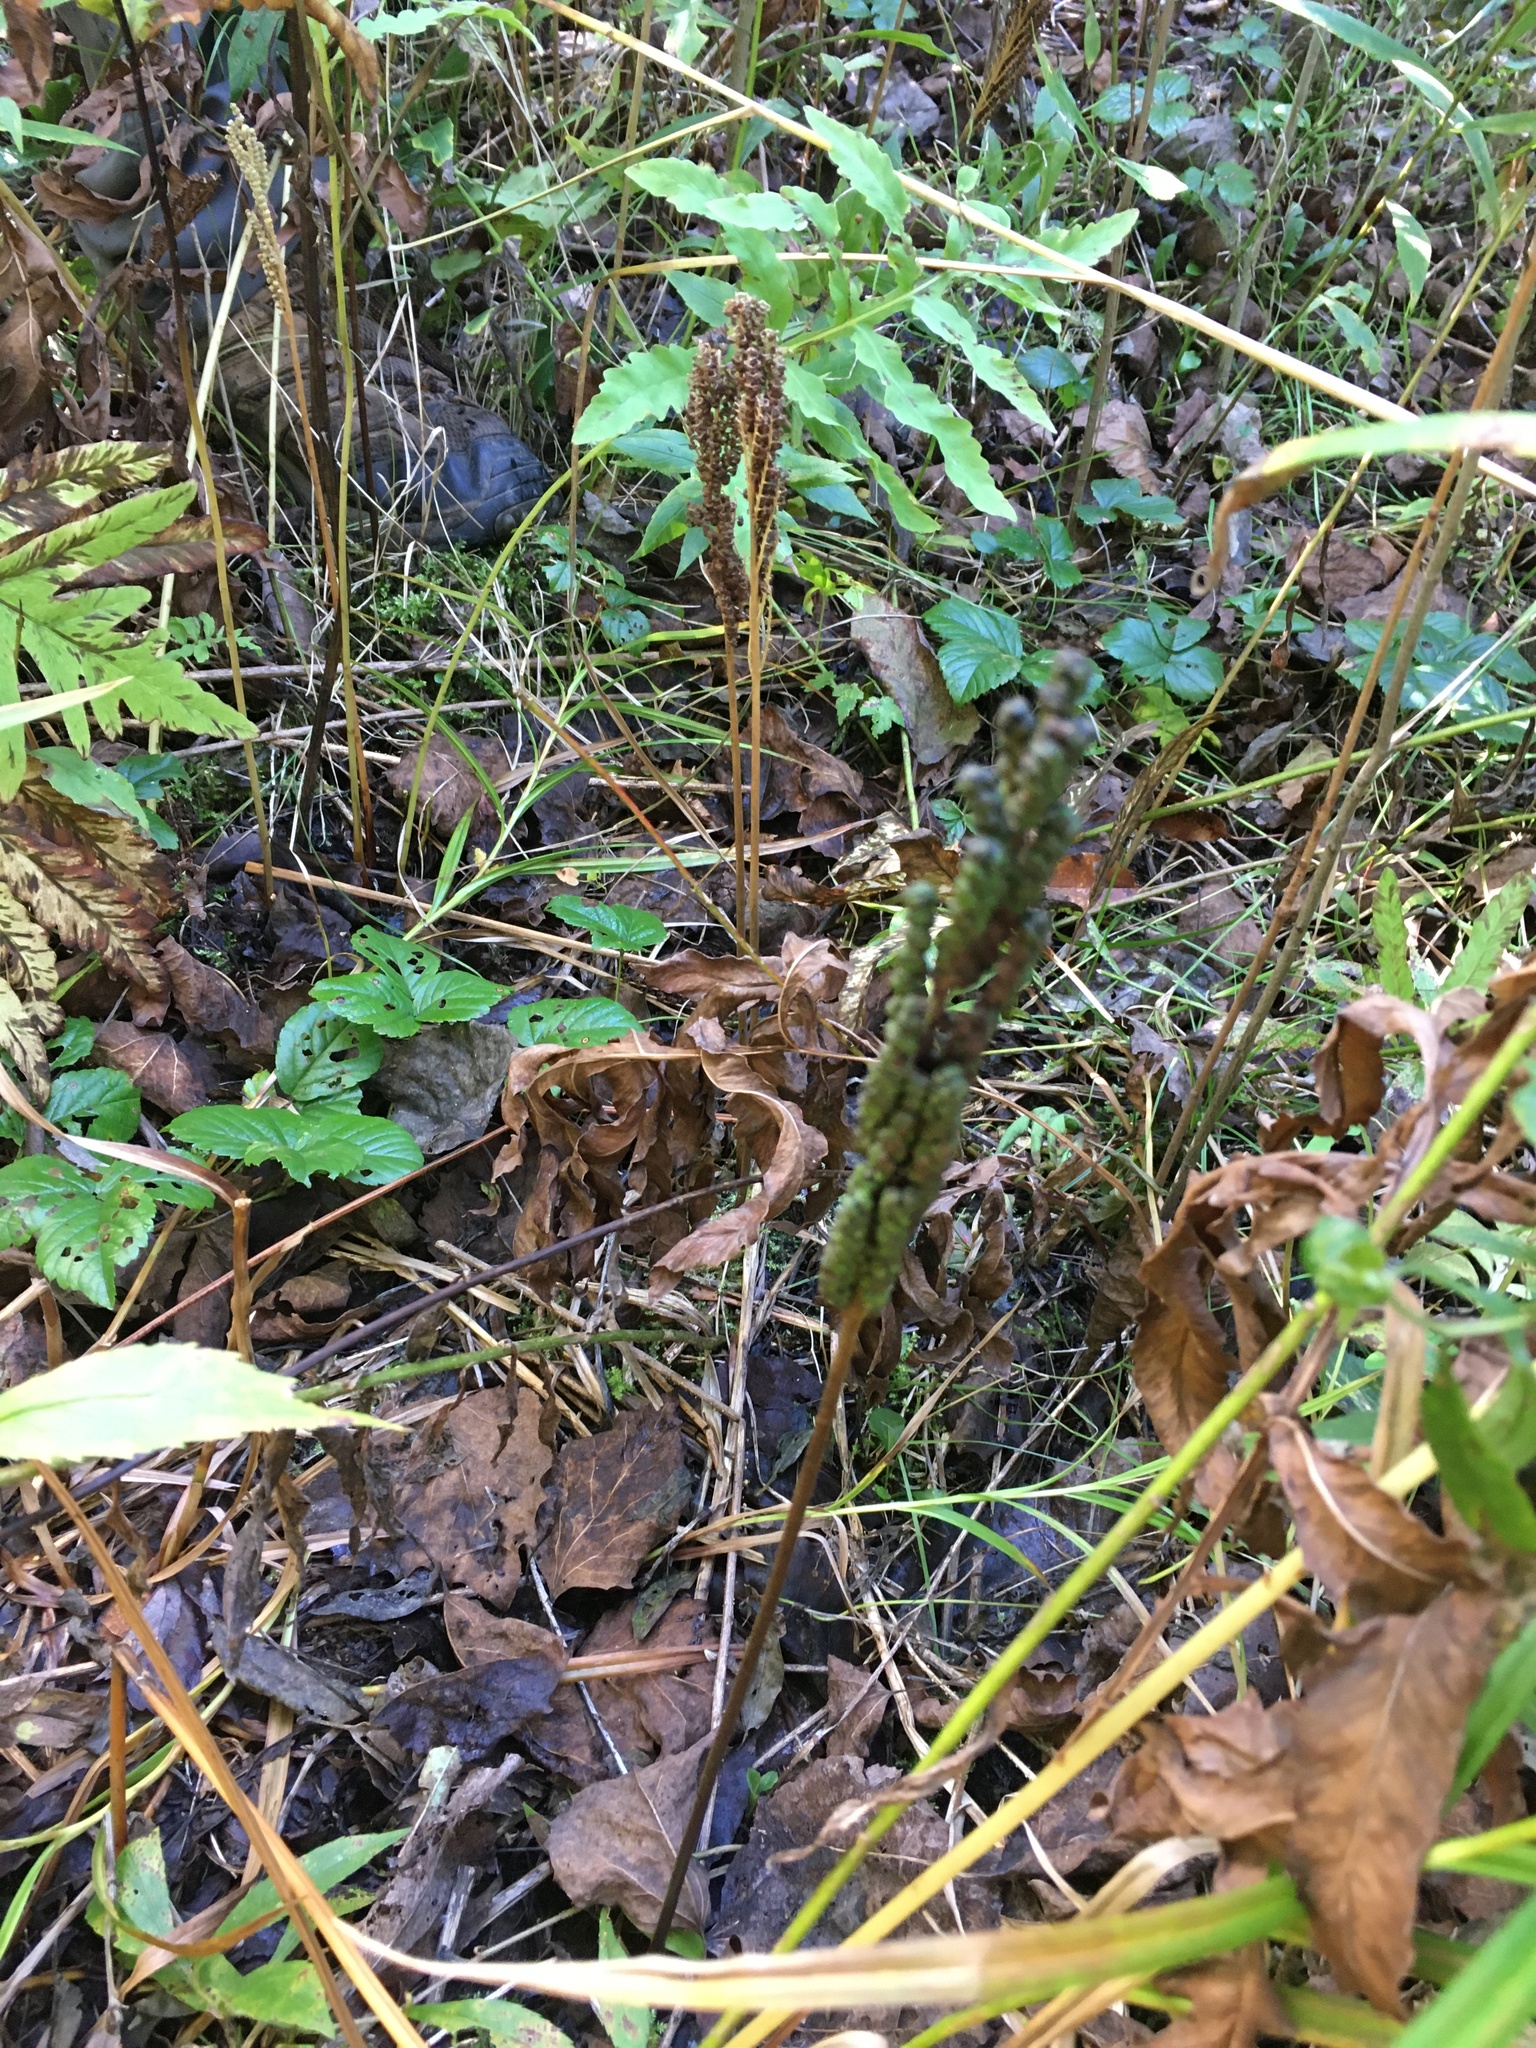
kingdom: Plantae
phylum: Tracheophyta
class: Polypodiopsida
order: Polypodiales
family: Onocleaceae
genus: Onoclea
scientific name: Onoclea sensibilis
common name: Sensitive fern
